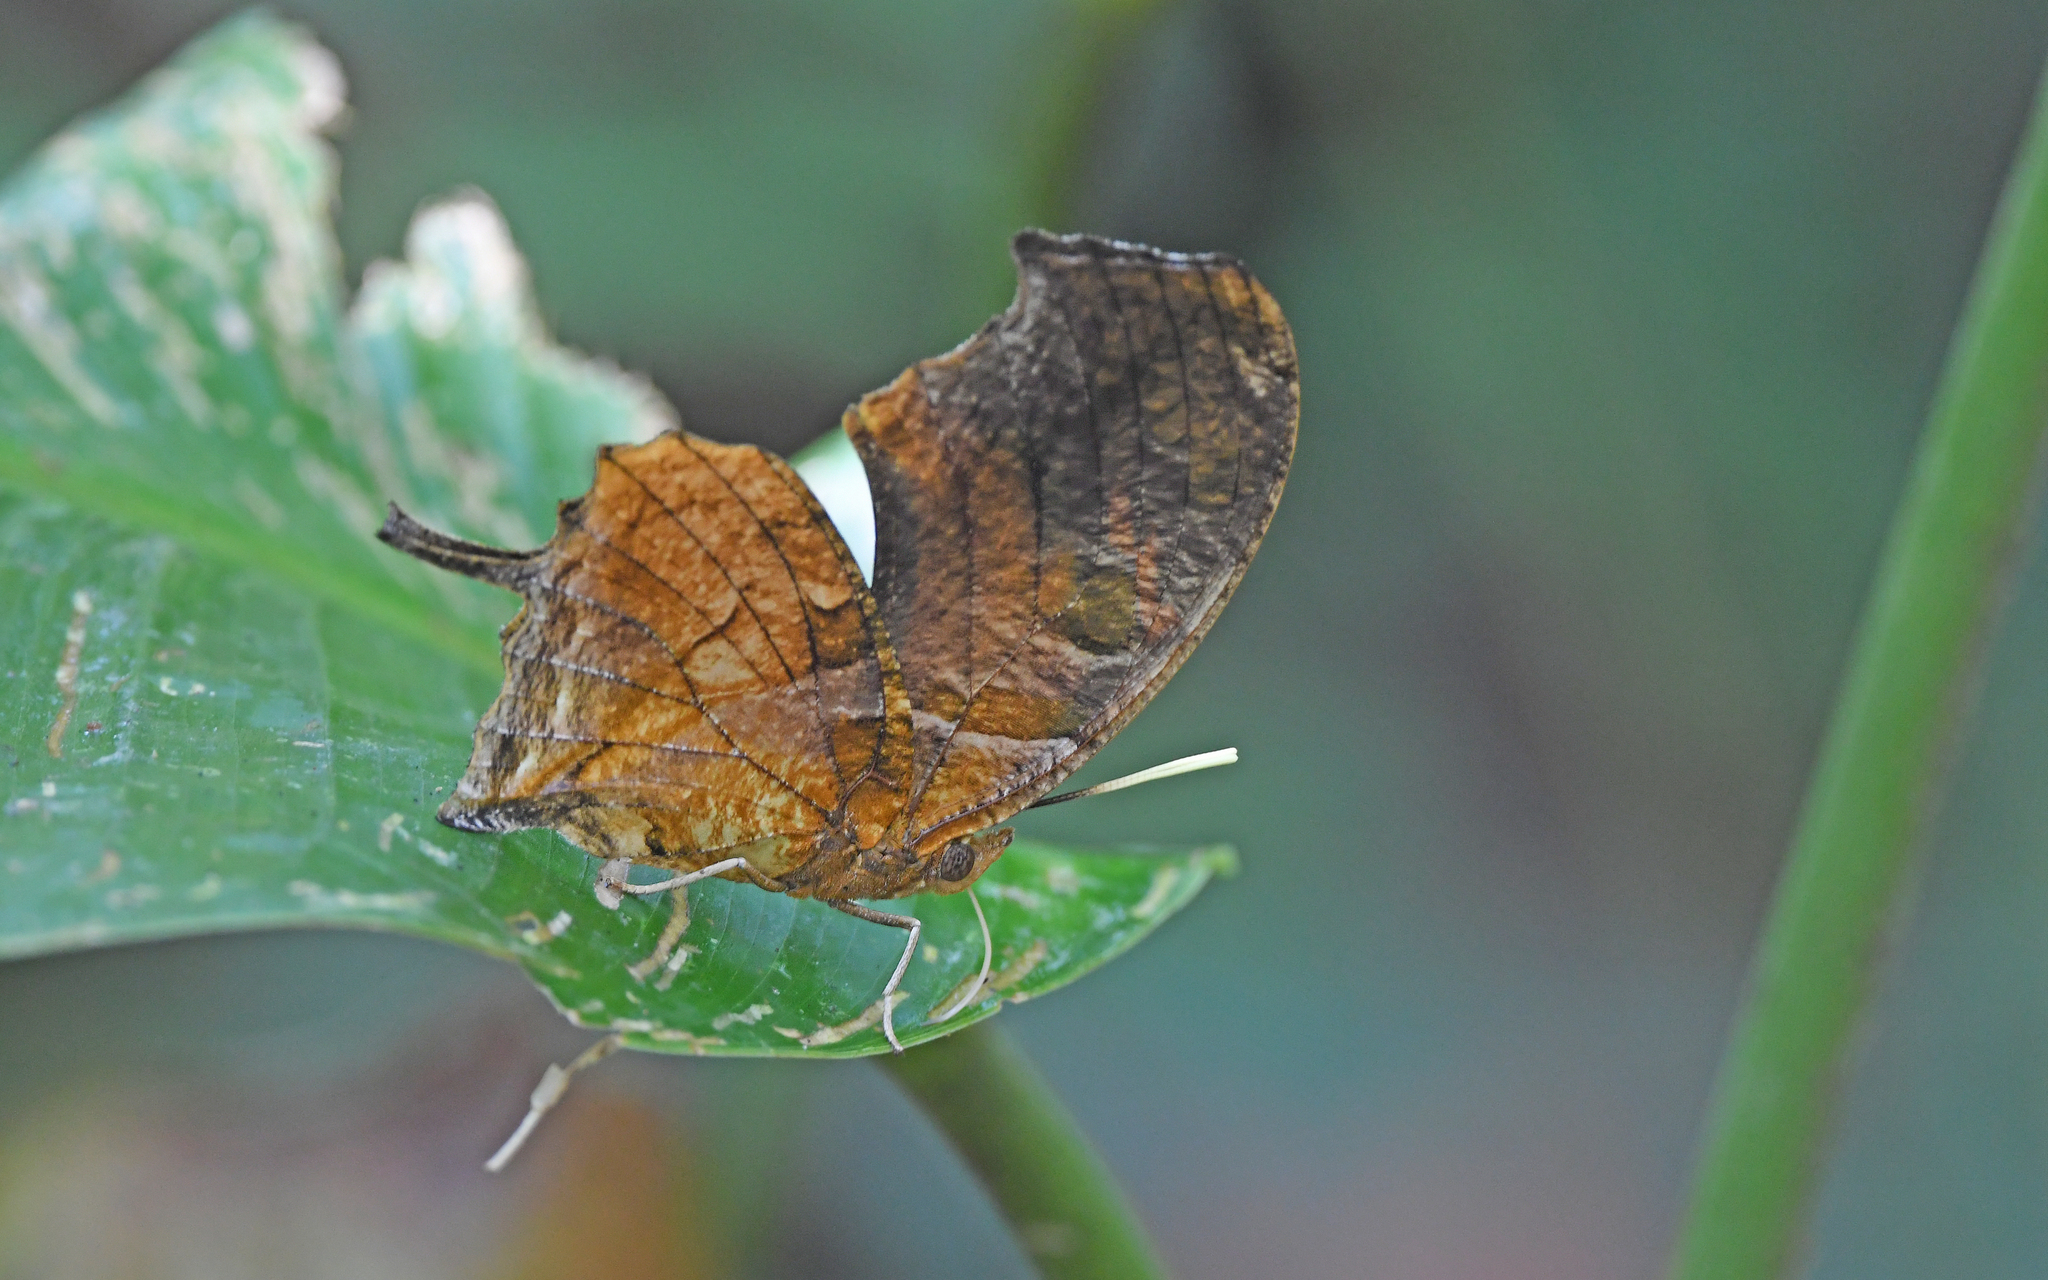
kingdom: Animalia
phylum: Arthropoda
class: Insecta
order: Lepidoptera
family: Nymphalidae
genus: Consul
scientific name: Consul fabius
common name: Tiger leafwing
